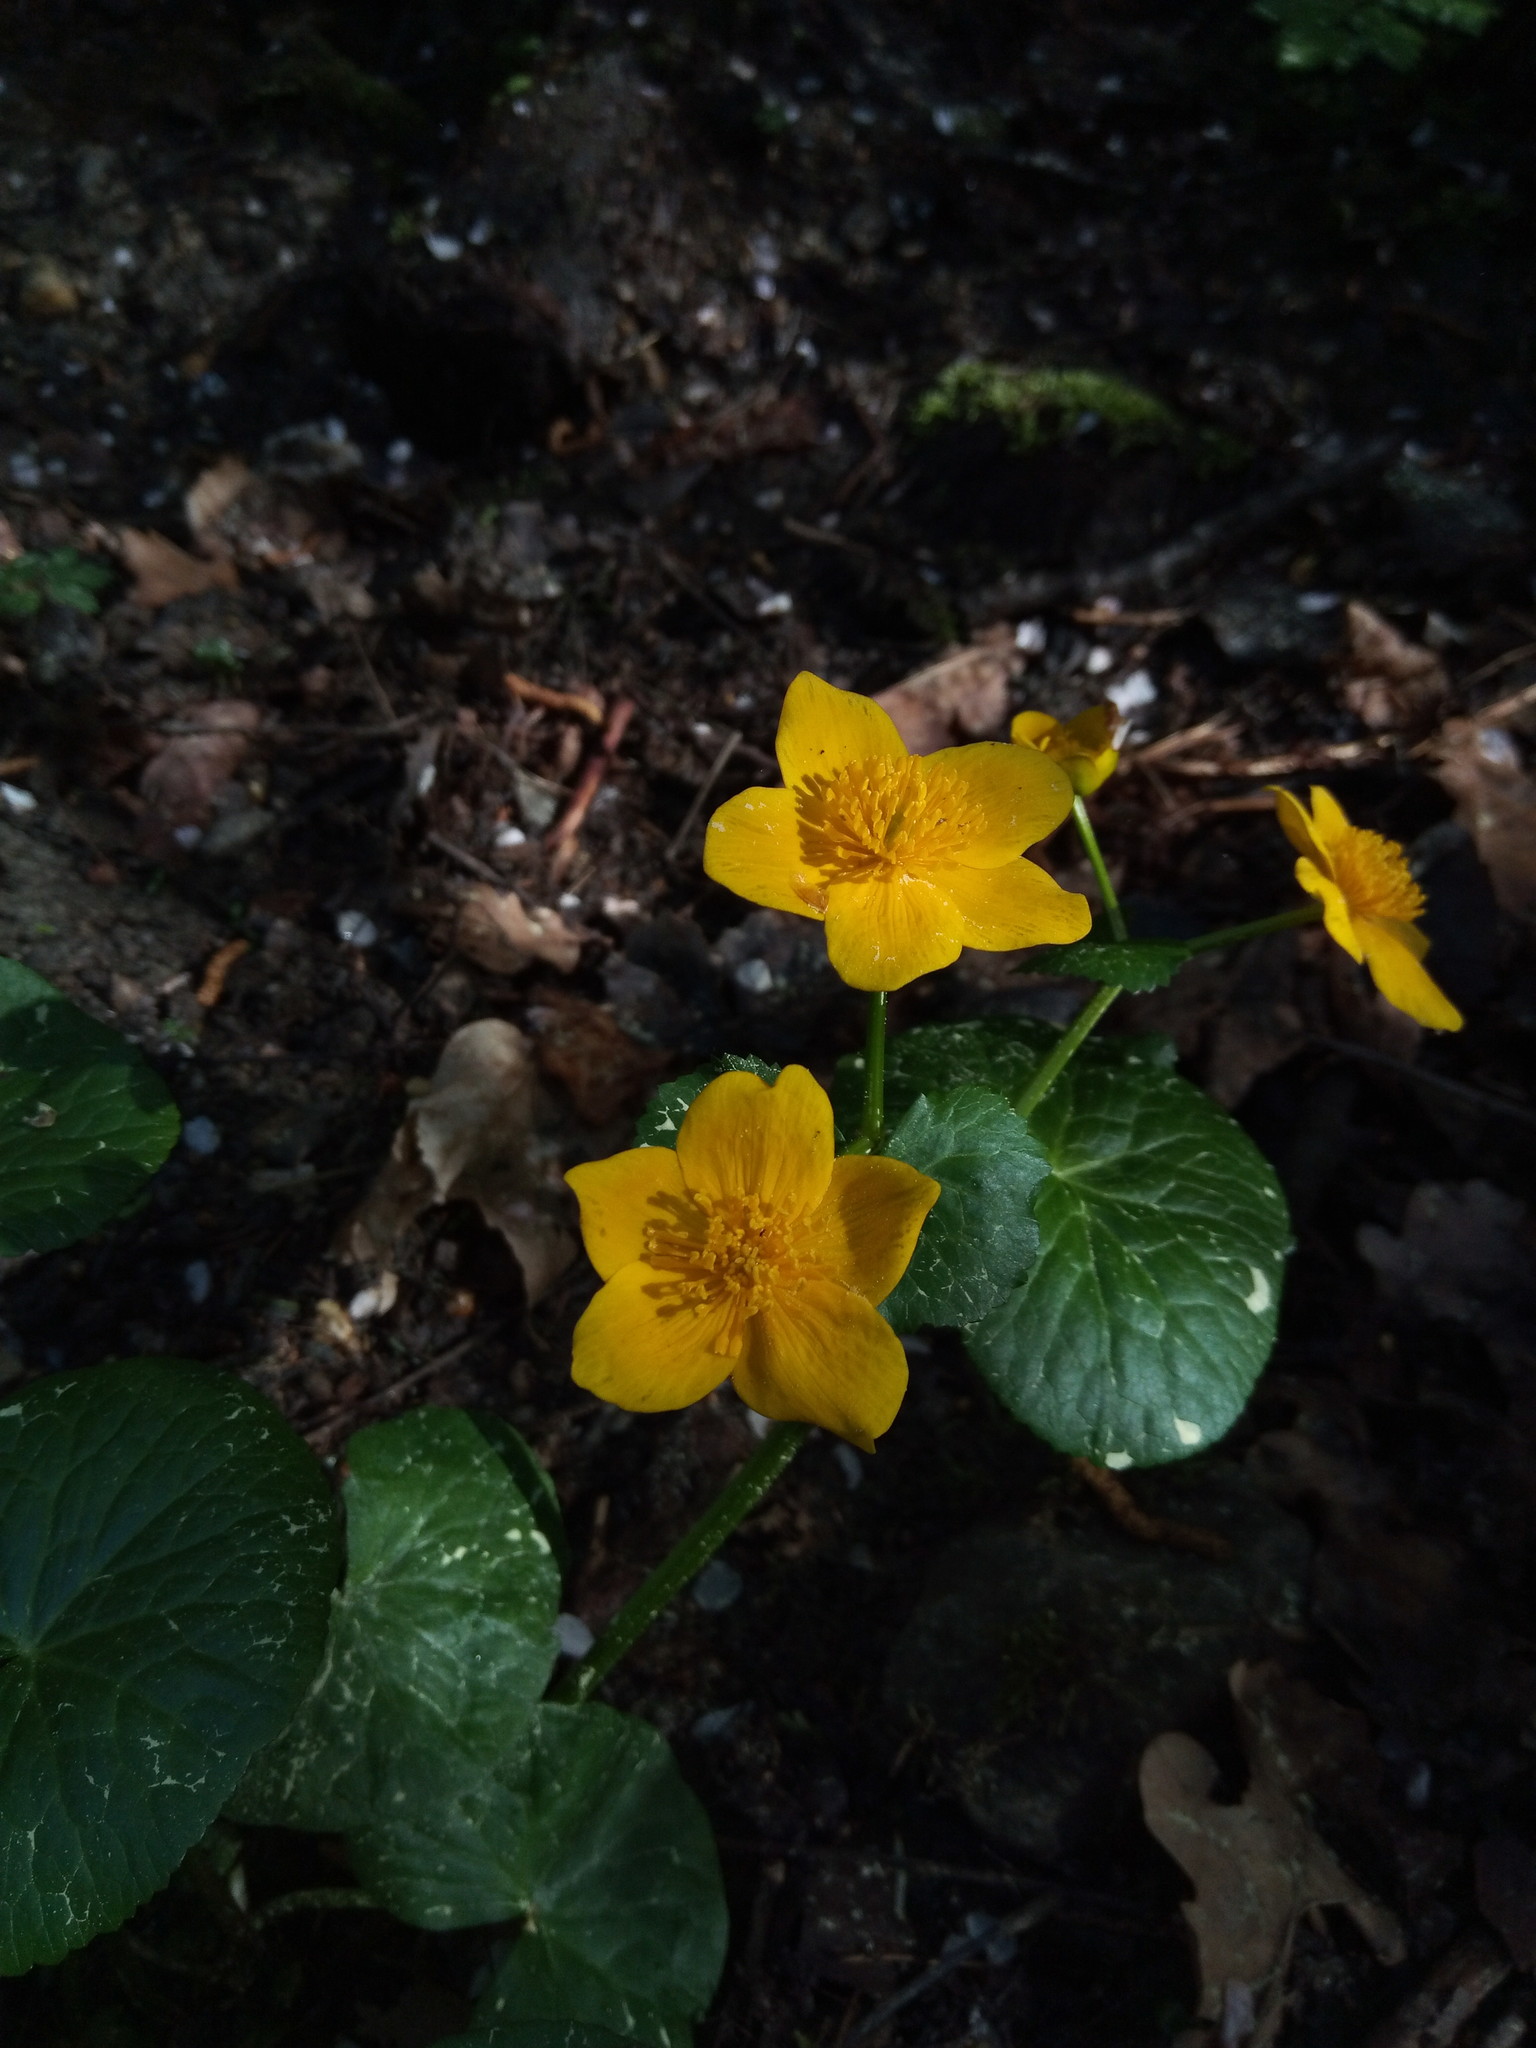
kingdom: Plantae
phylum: Tracheophyta
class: Magnoliopsida
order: Ranunculales
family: Ranunculaceae
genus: Caltha
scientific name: Caltha palustris
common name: Marsh marigold
